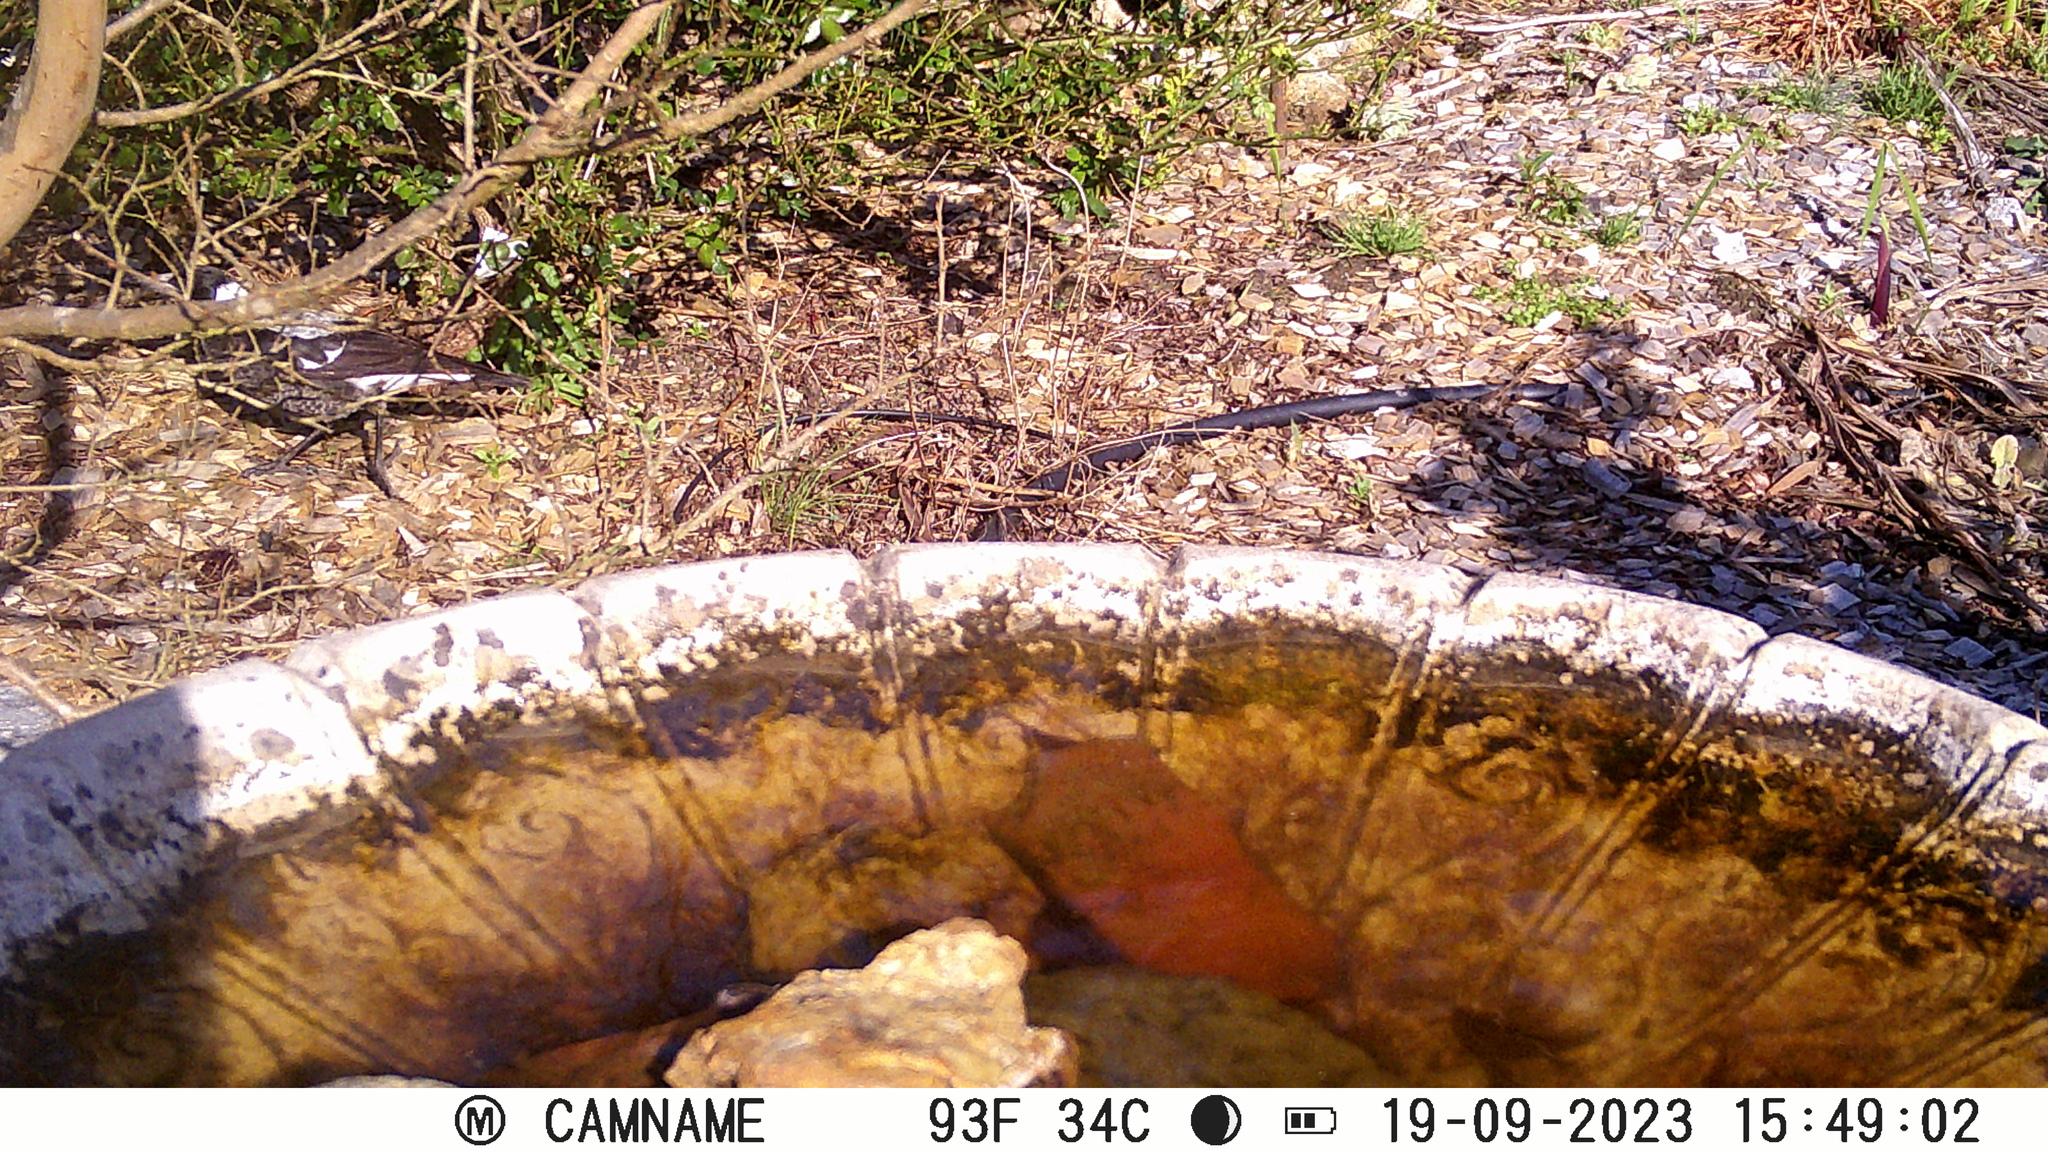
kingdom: Animalia
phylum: Chordata
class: Aves
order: Passeriformes
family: Cracticidae
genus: Gymnorhina
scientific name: Gymnorhina tibicen
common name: Australian magpie
